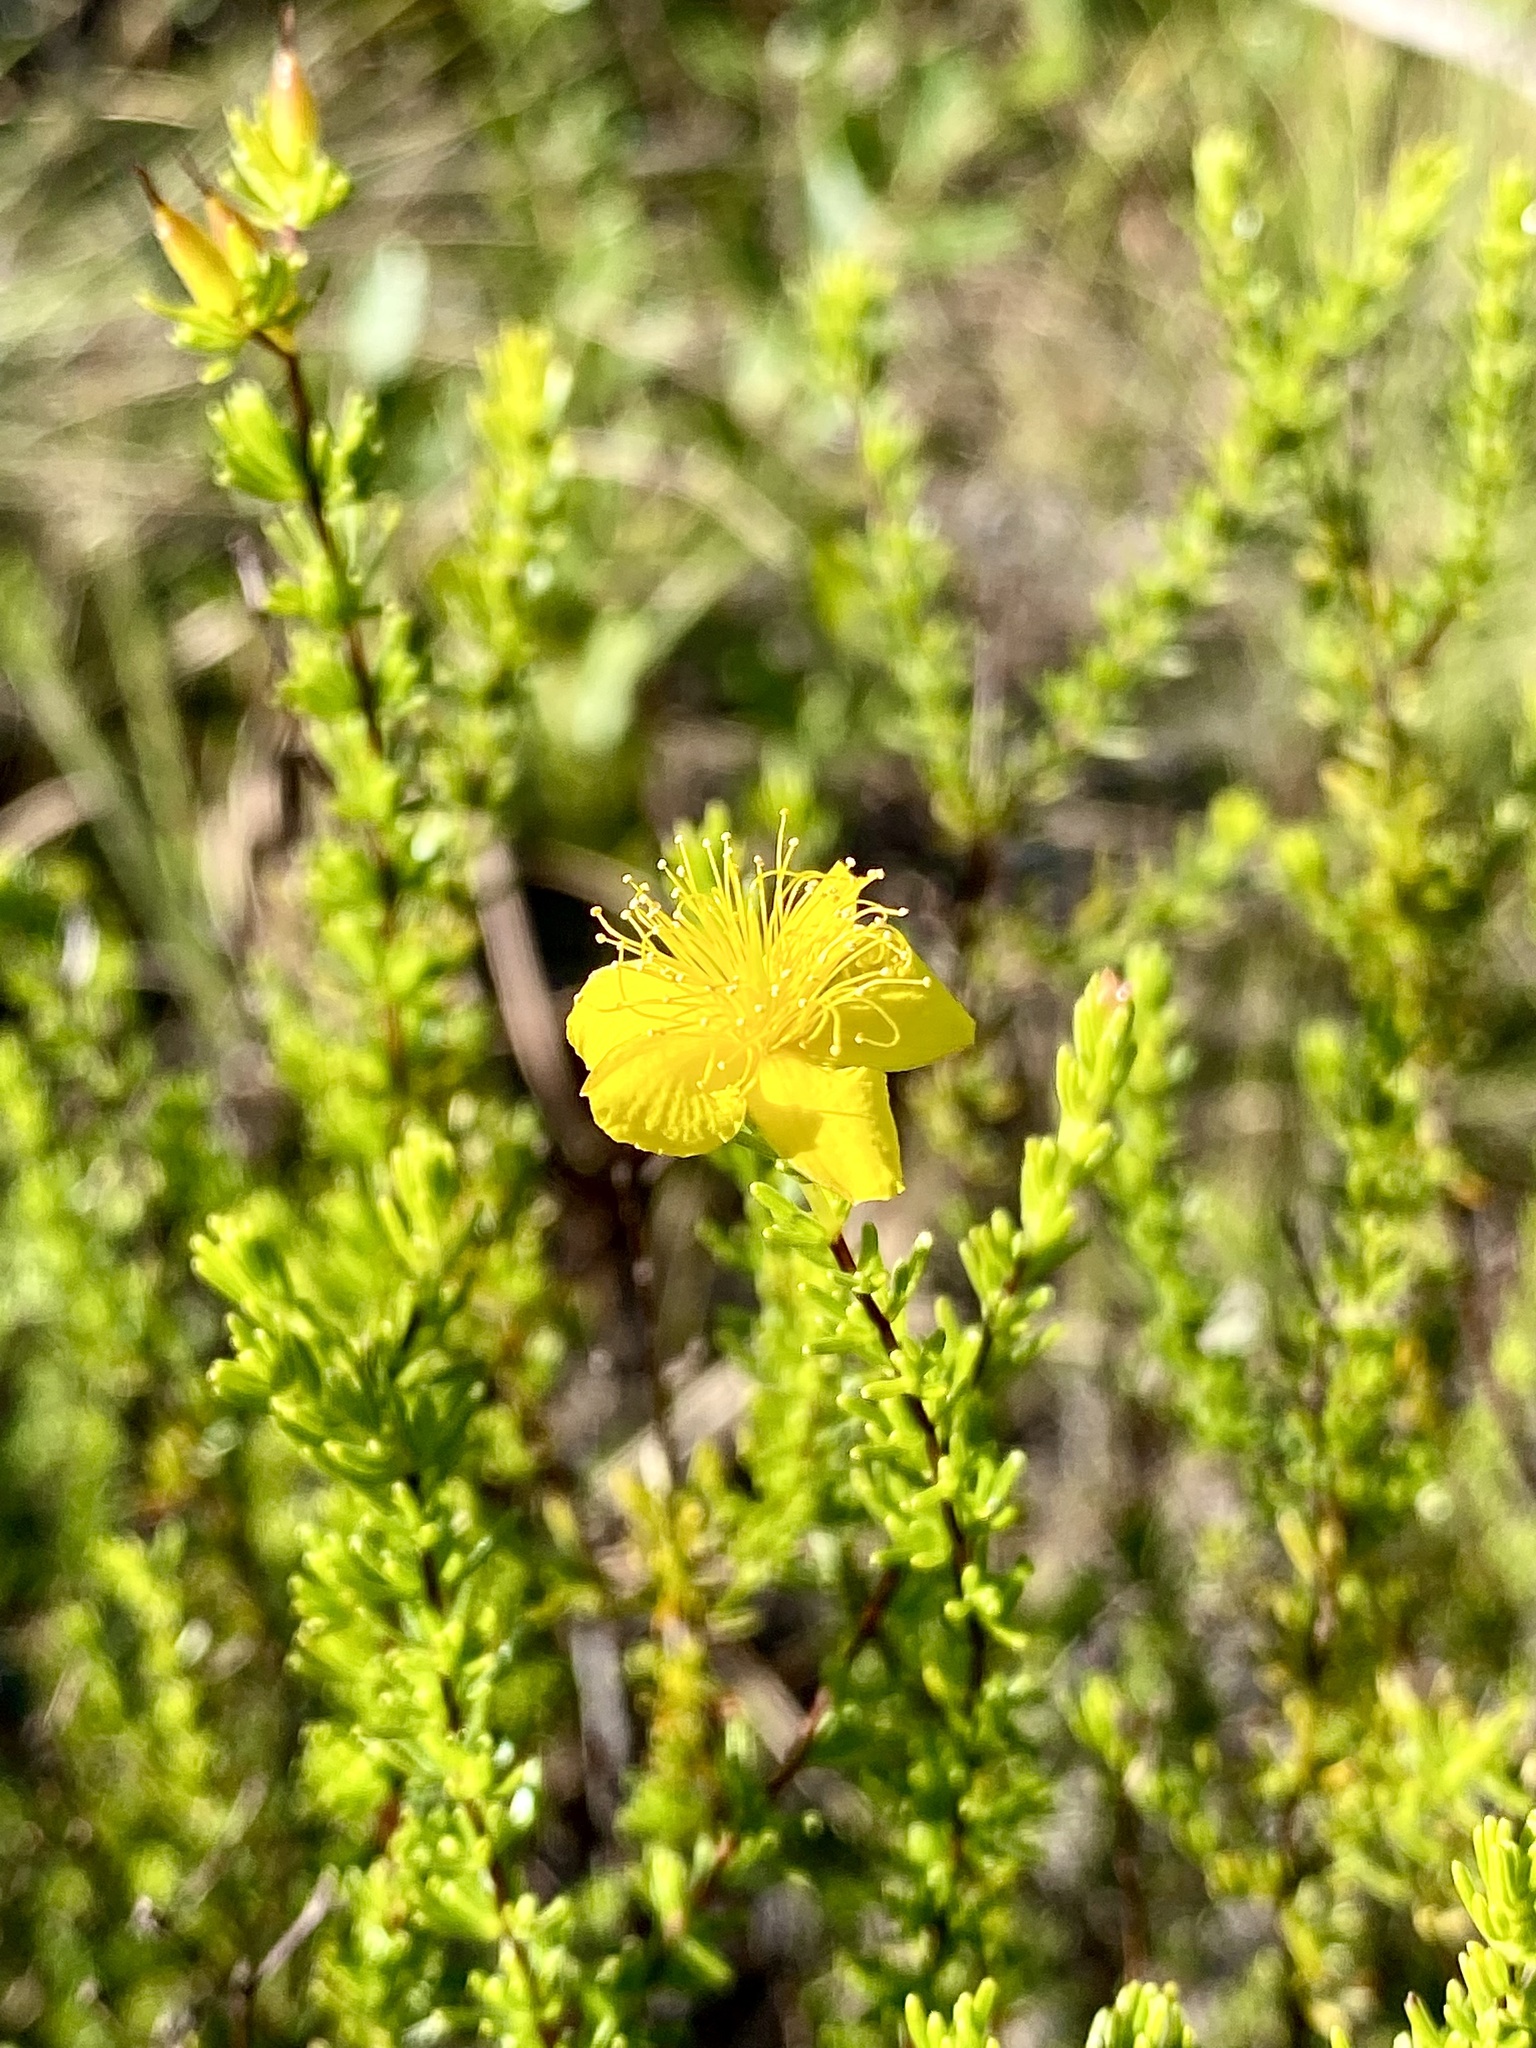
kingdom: Plantae
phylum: Tracheophyta
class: Magnoliopsida
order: Malpighiales
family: Hypericaceae
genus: Hypericum
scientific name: Hypericum tenuifolium
